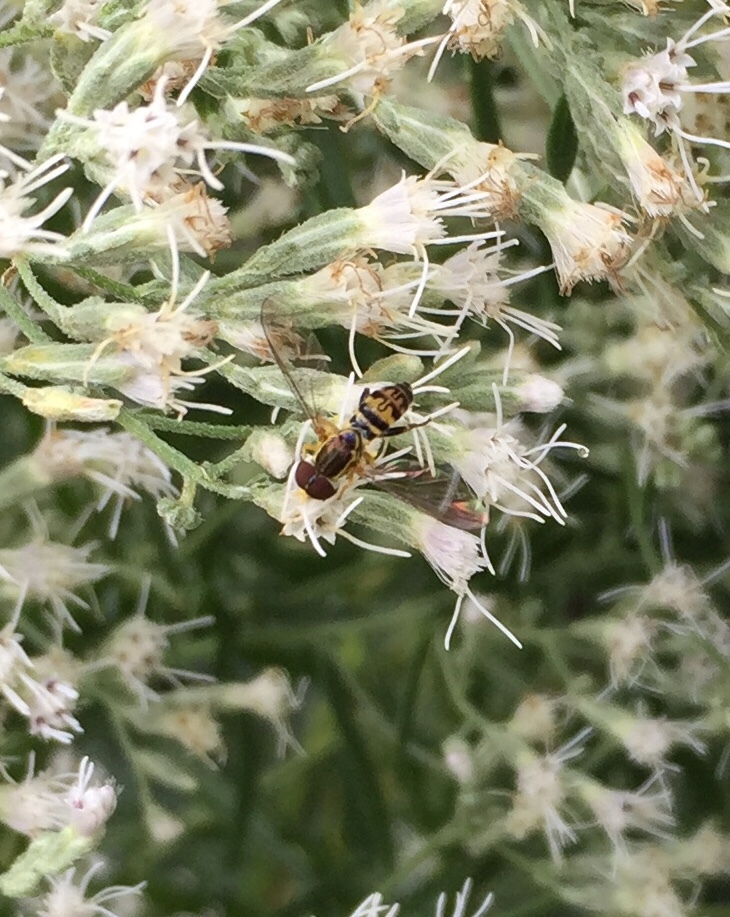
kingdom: Animalia
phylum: Arthropoda
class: Insecta
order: Diptera
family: Syrphidae
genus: Toxomerus
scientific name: Toxomerus geminatus
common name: Eastern calligrapher
